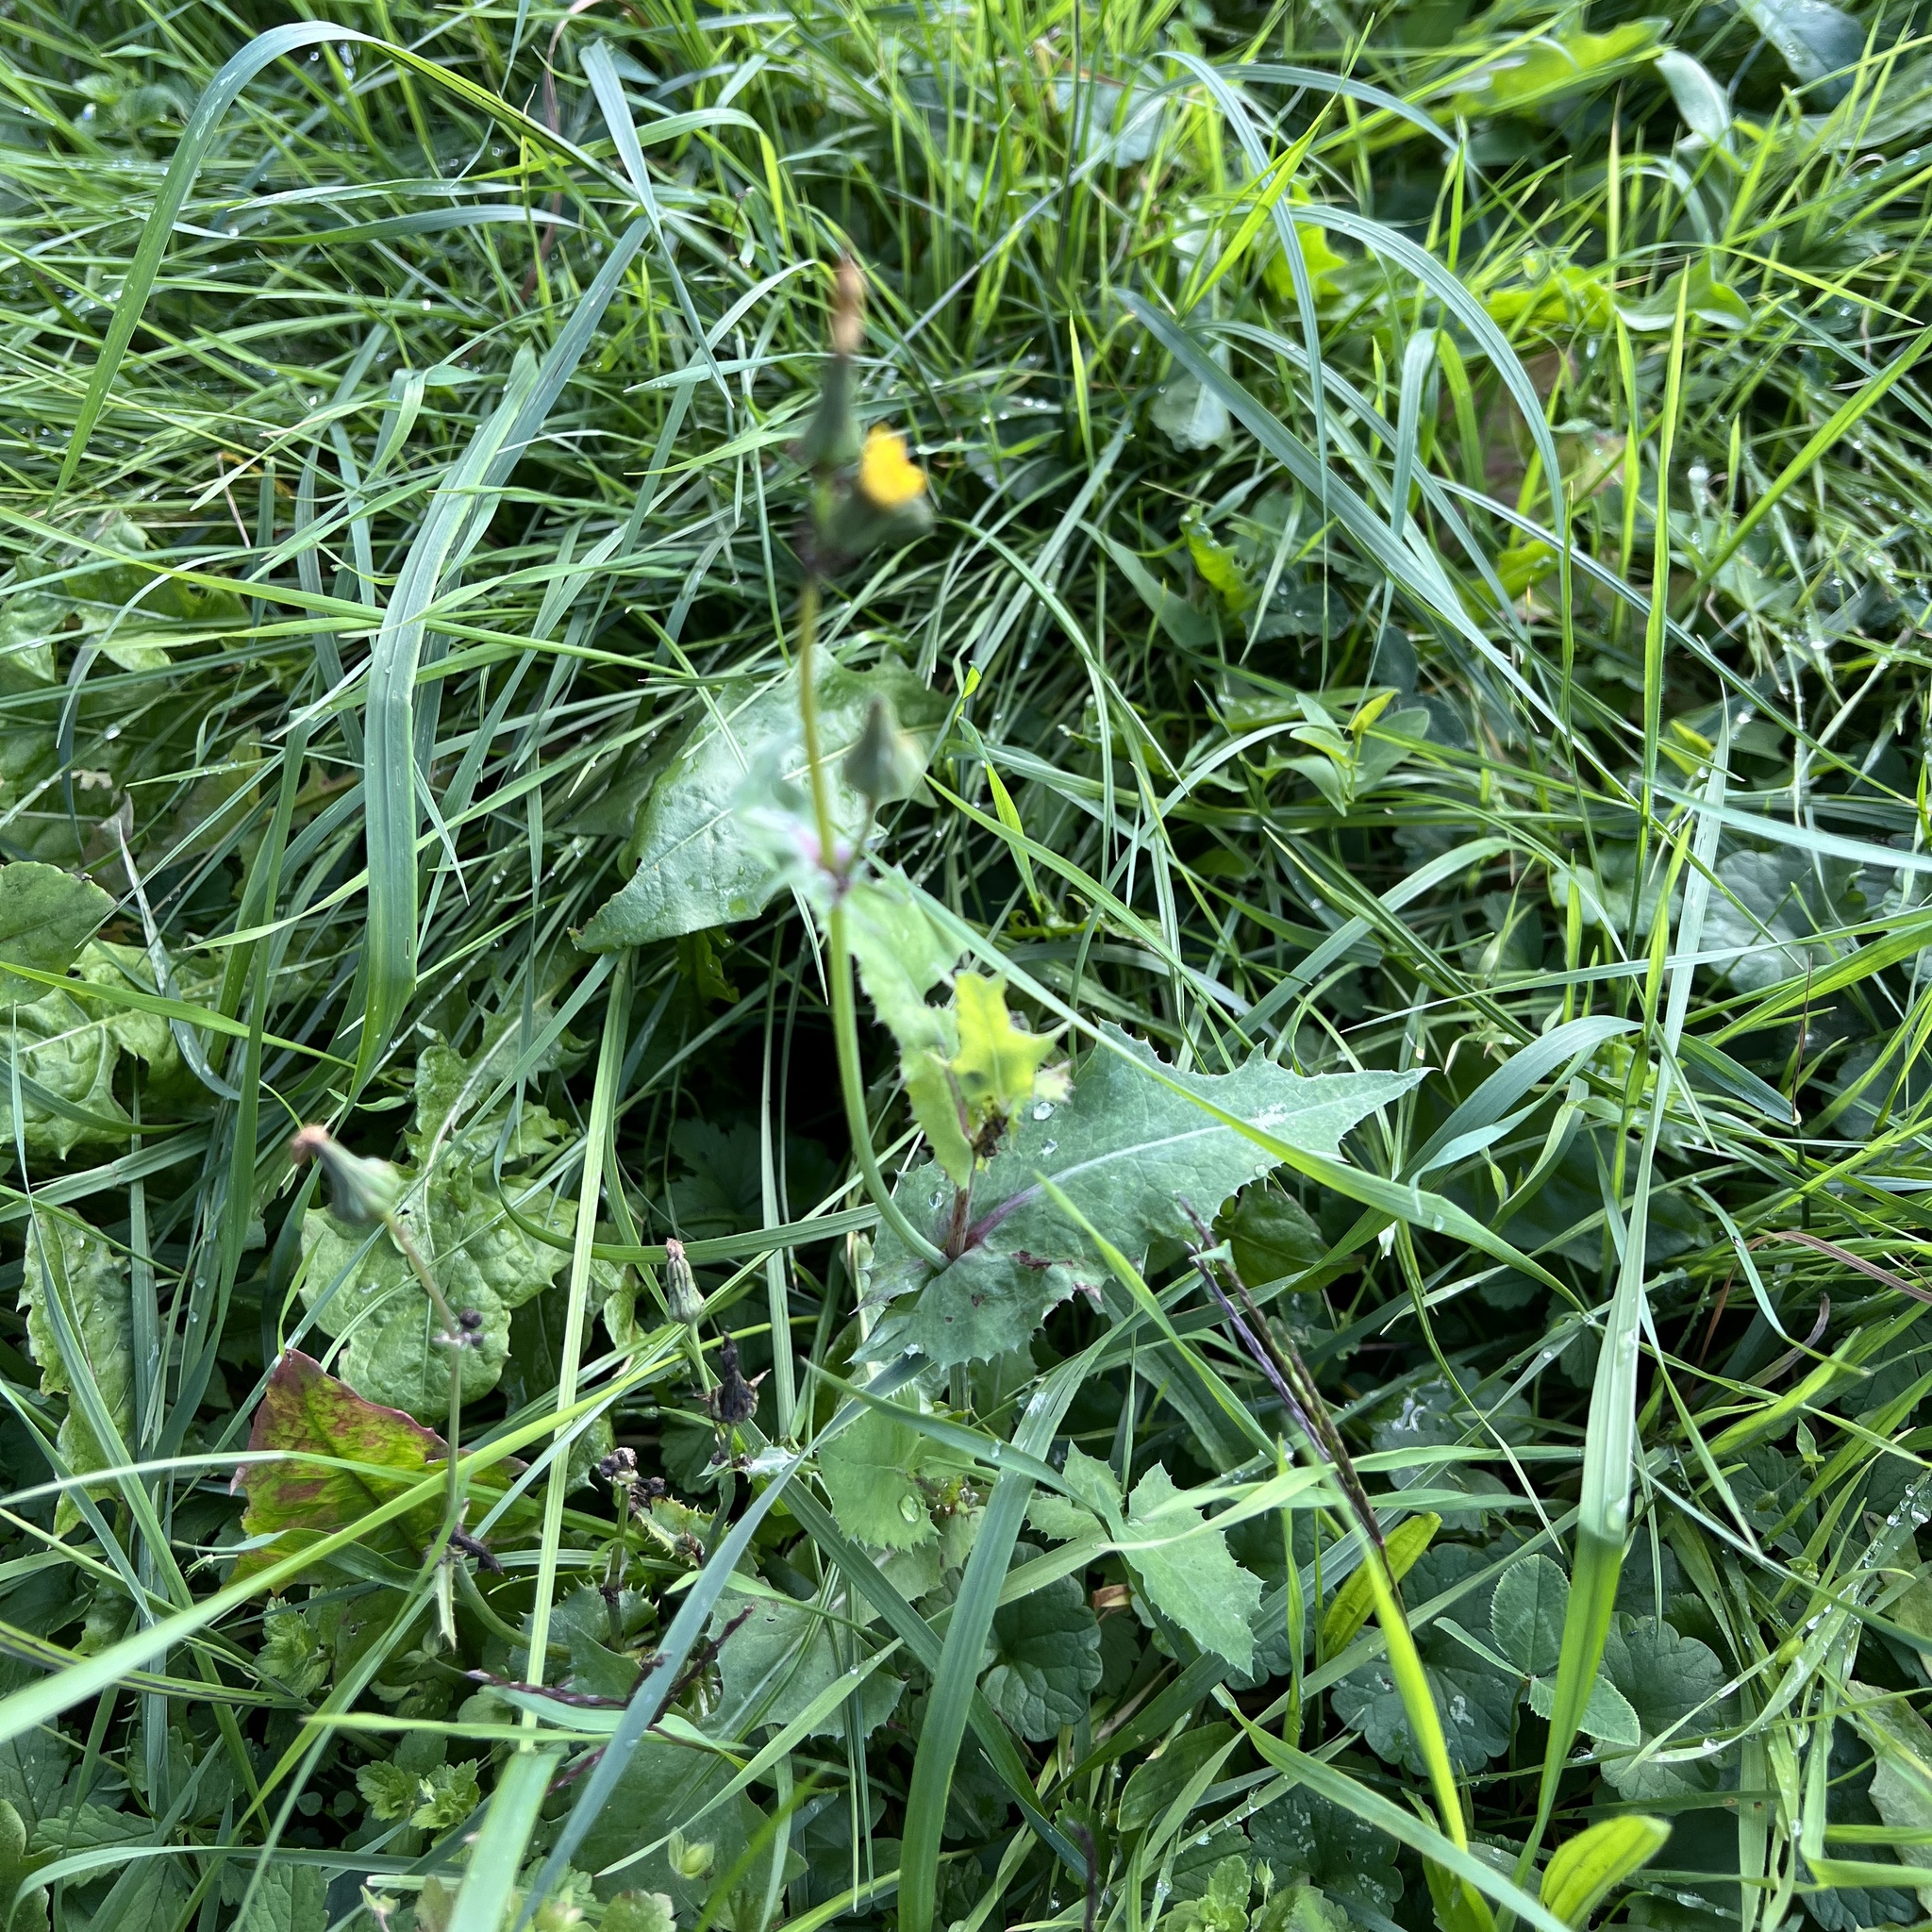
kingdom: Plantae
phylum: Tracheophyta
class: Magnoliopsida
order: Asterales
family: Asteraceae
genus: Sonchus
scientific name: Sonchus oleraceus
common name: Common sowthistle
